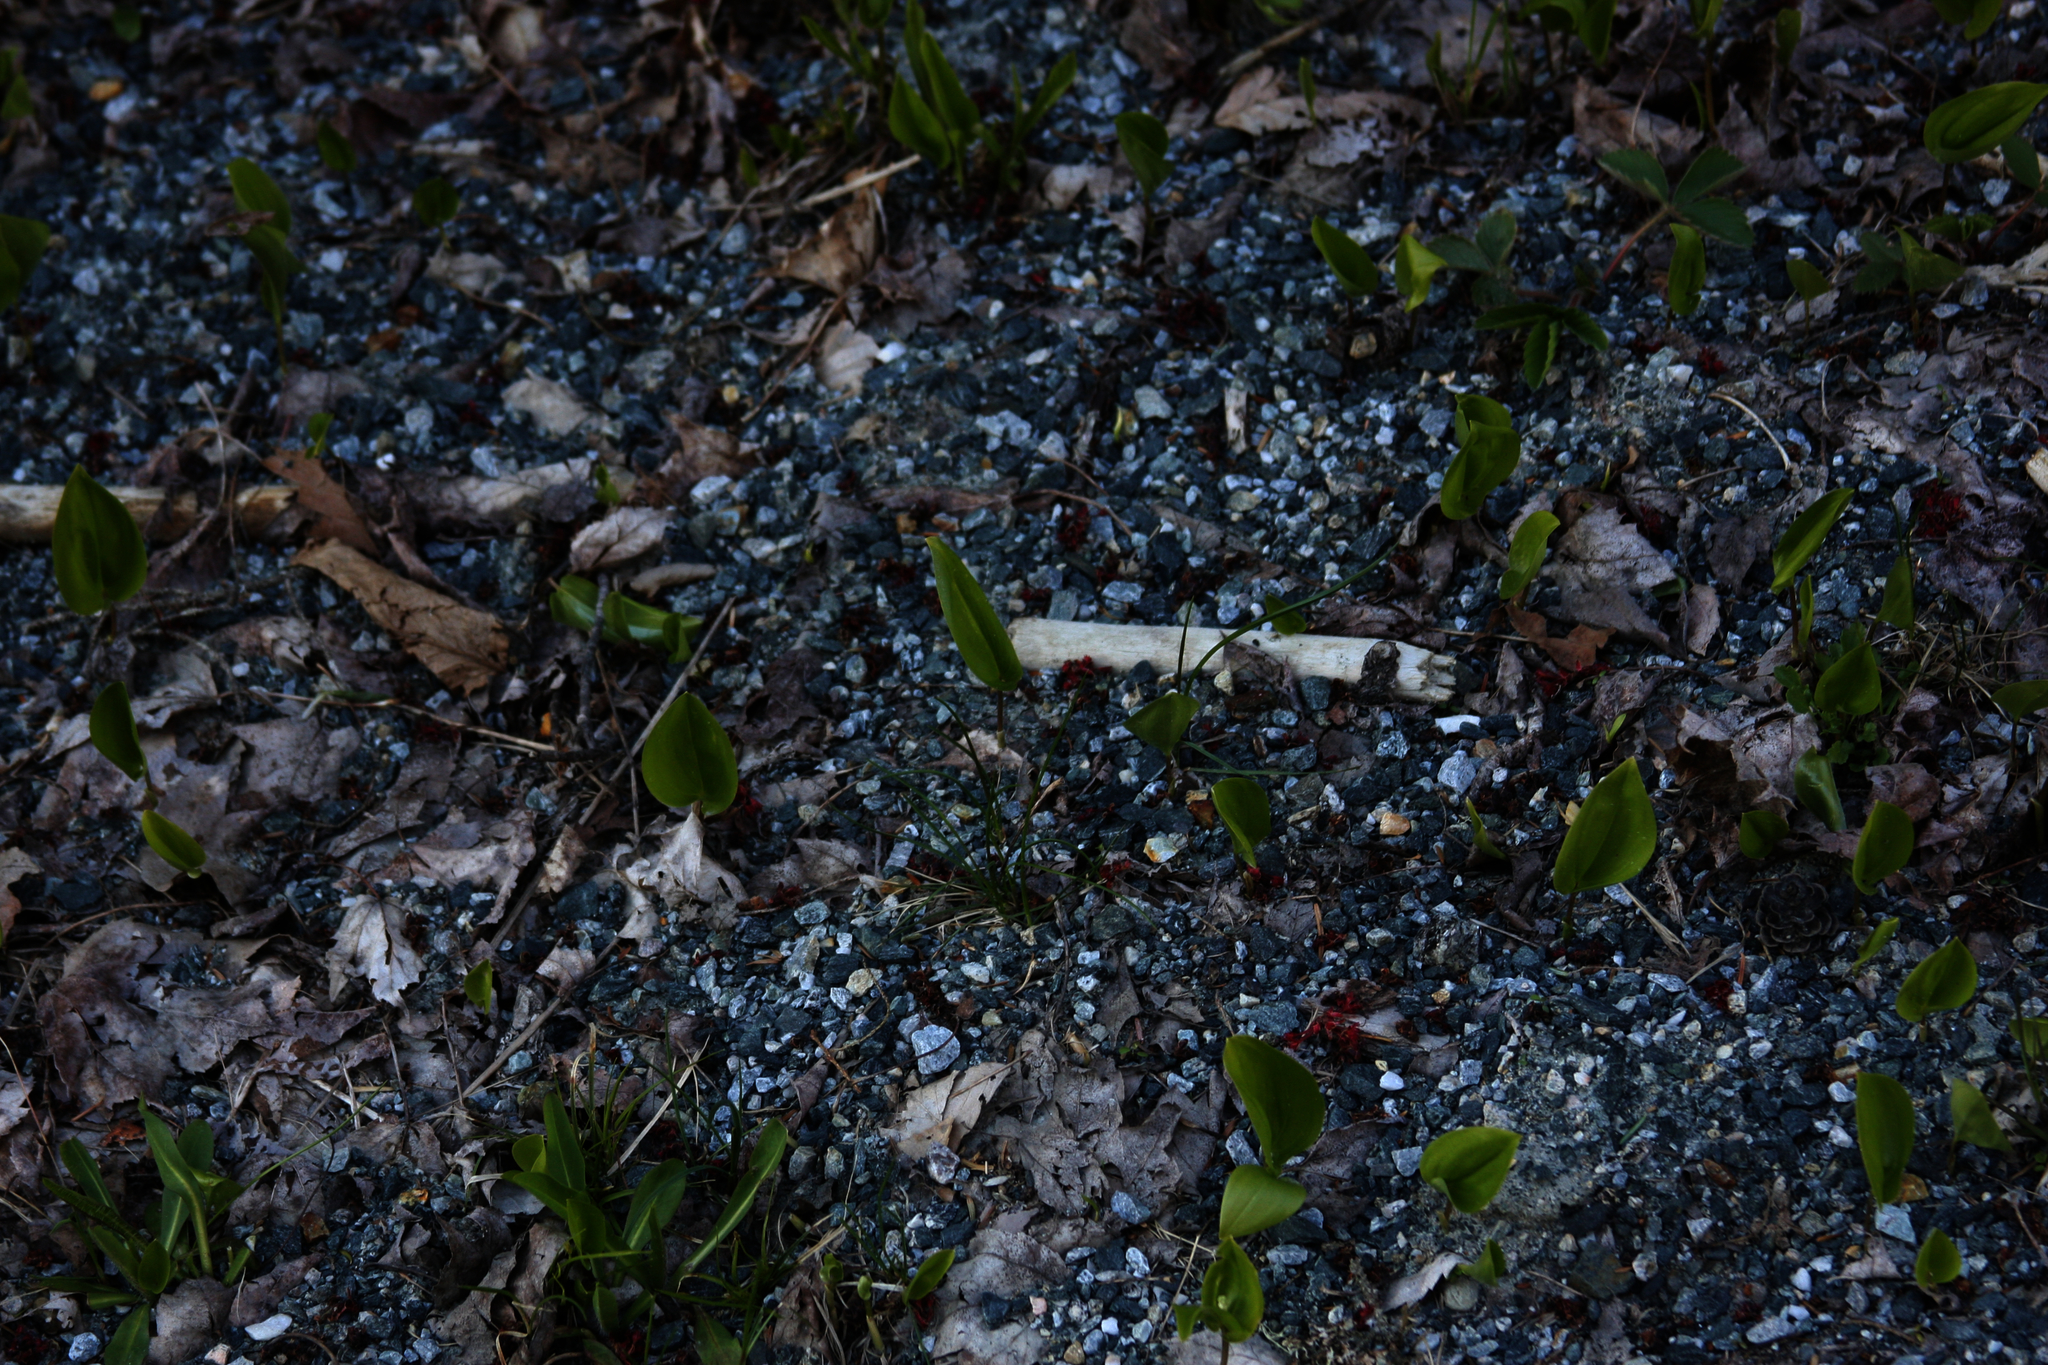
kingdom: Plantae
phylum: Tracheophyta
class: Liliopsida
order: Asparagales
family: Asparagaceae
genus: Maianthemum
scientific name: Maianthemum canadense
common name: False lily-of-the-valley
